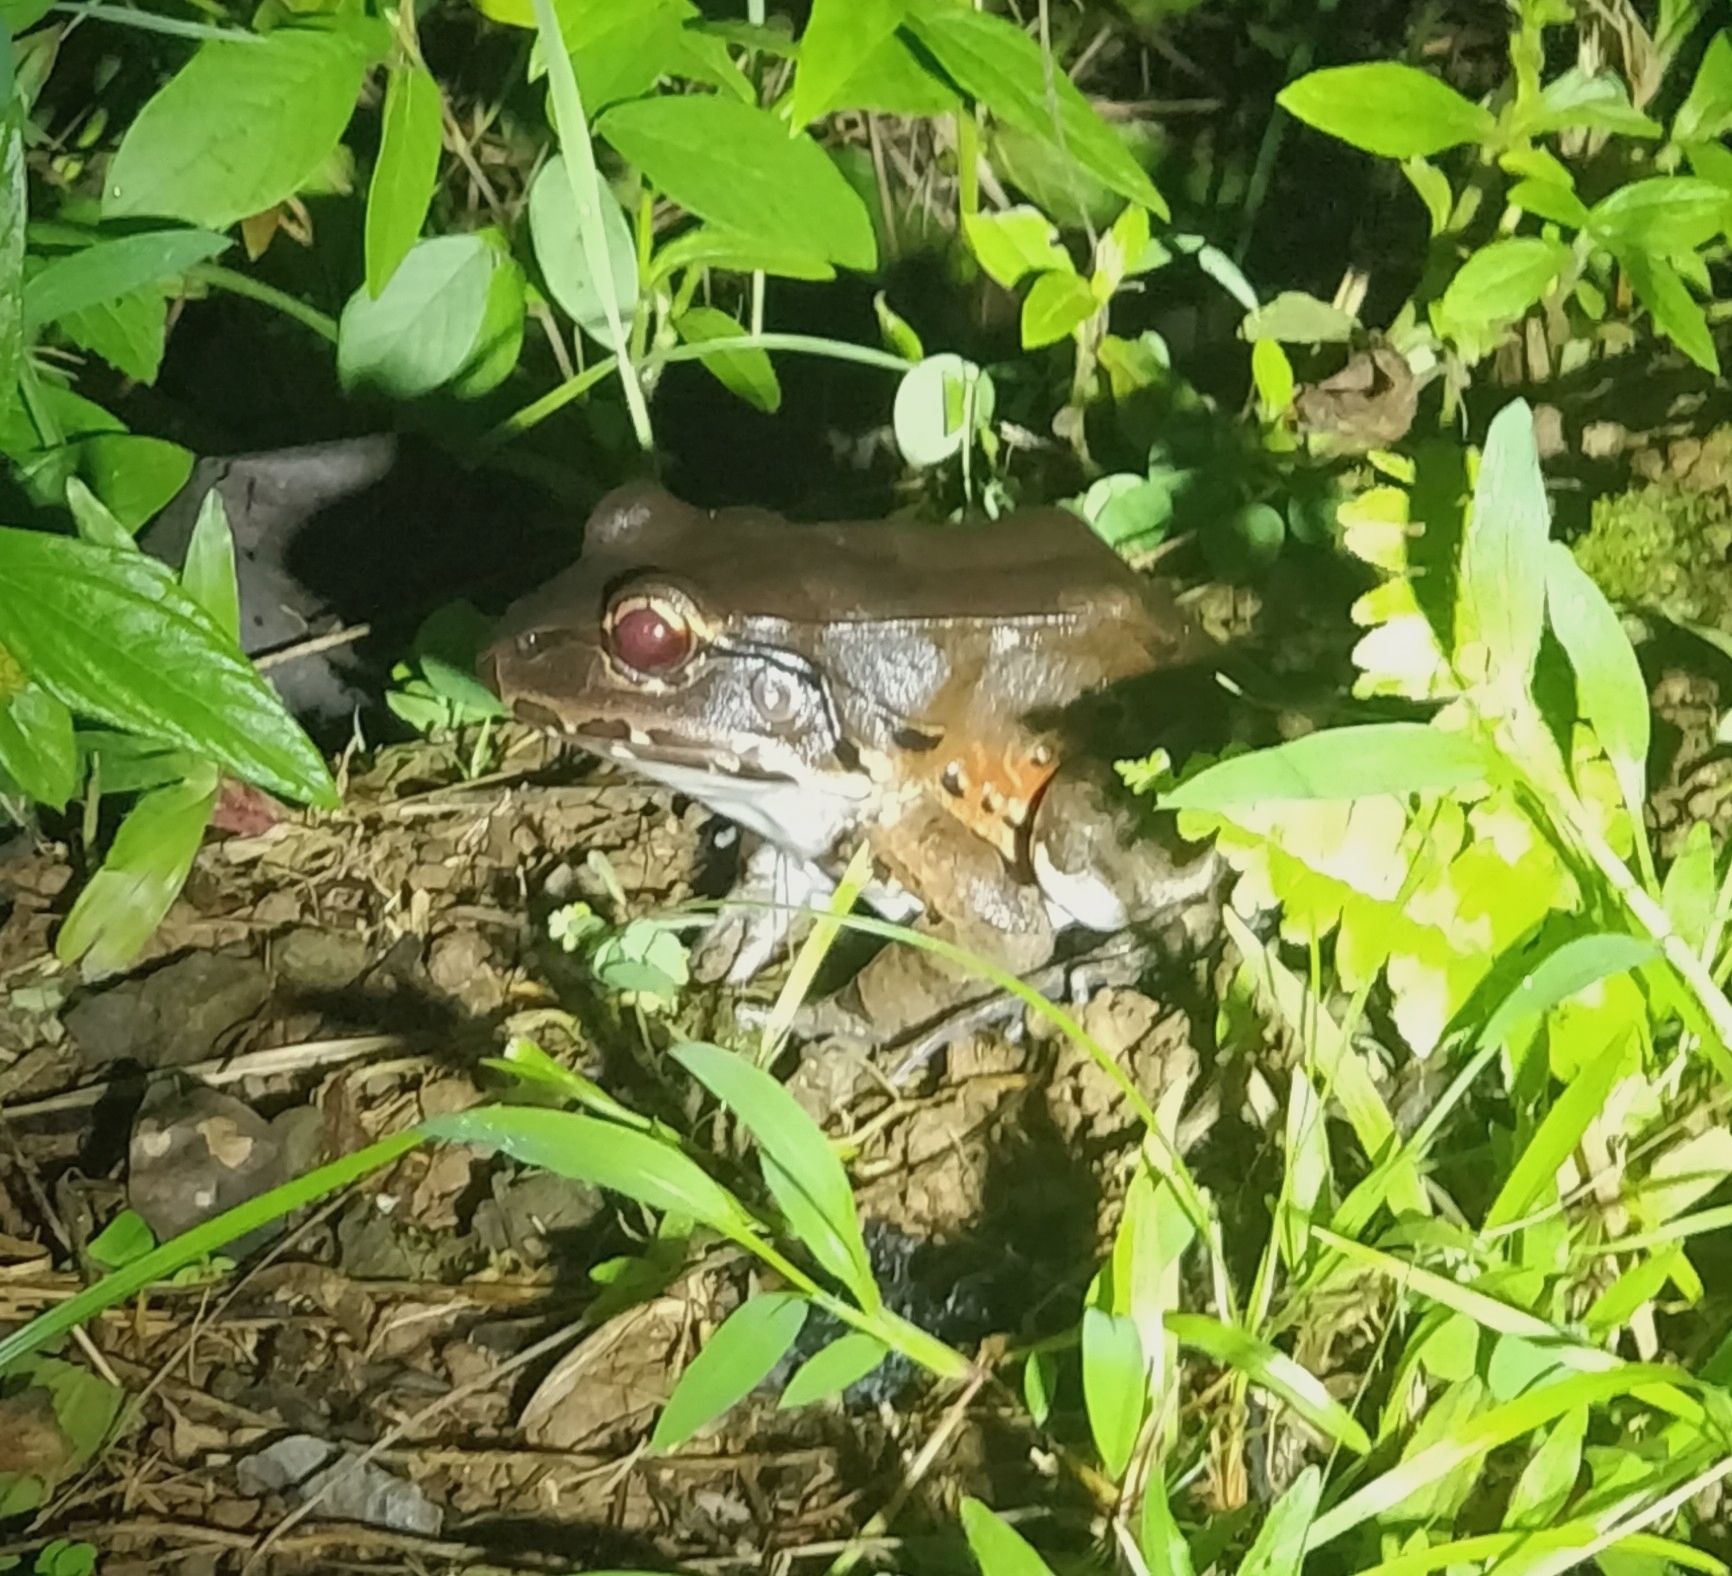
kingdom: Animalia
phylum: Chordata
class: Amphibia
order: Anura
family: Leptodactylidae
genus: Leptodactylus
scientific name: Leptodactylus savagei
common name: Savage's thin-toed frog
